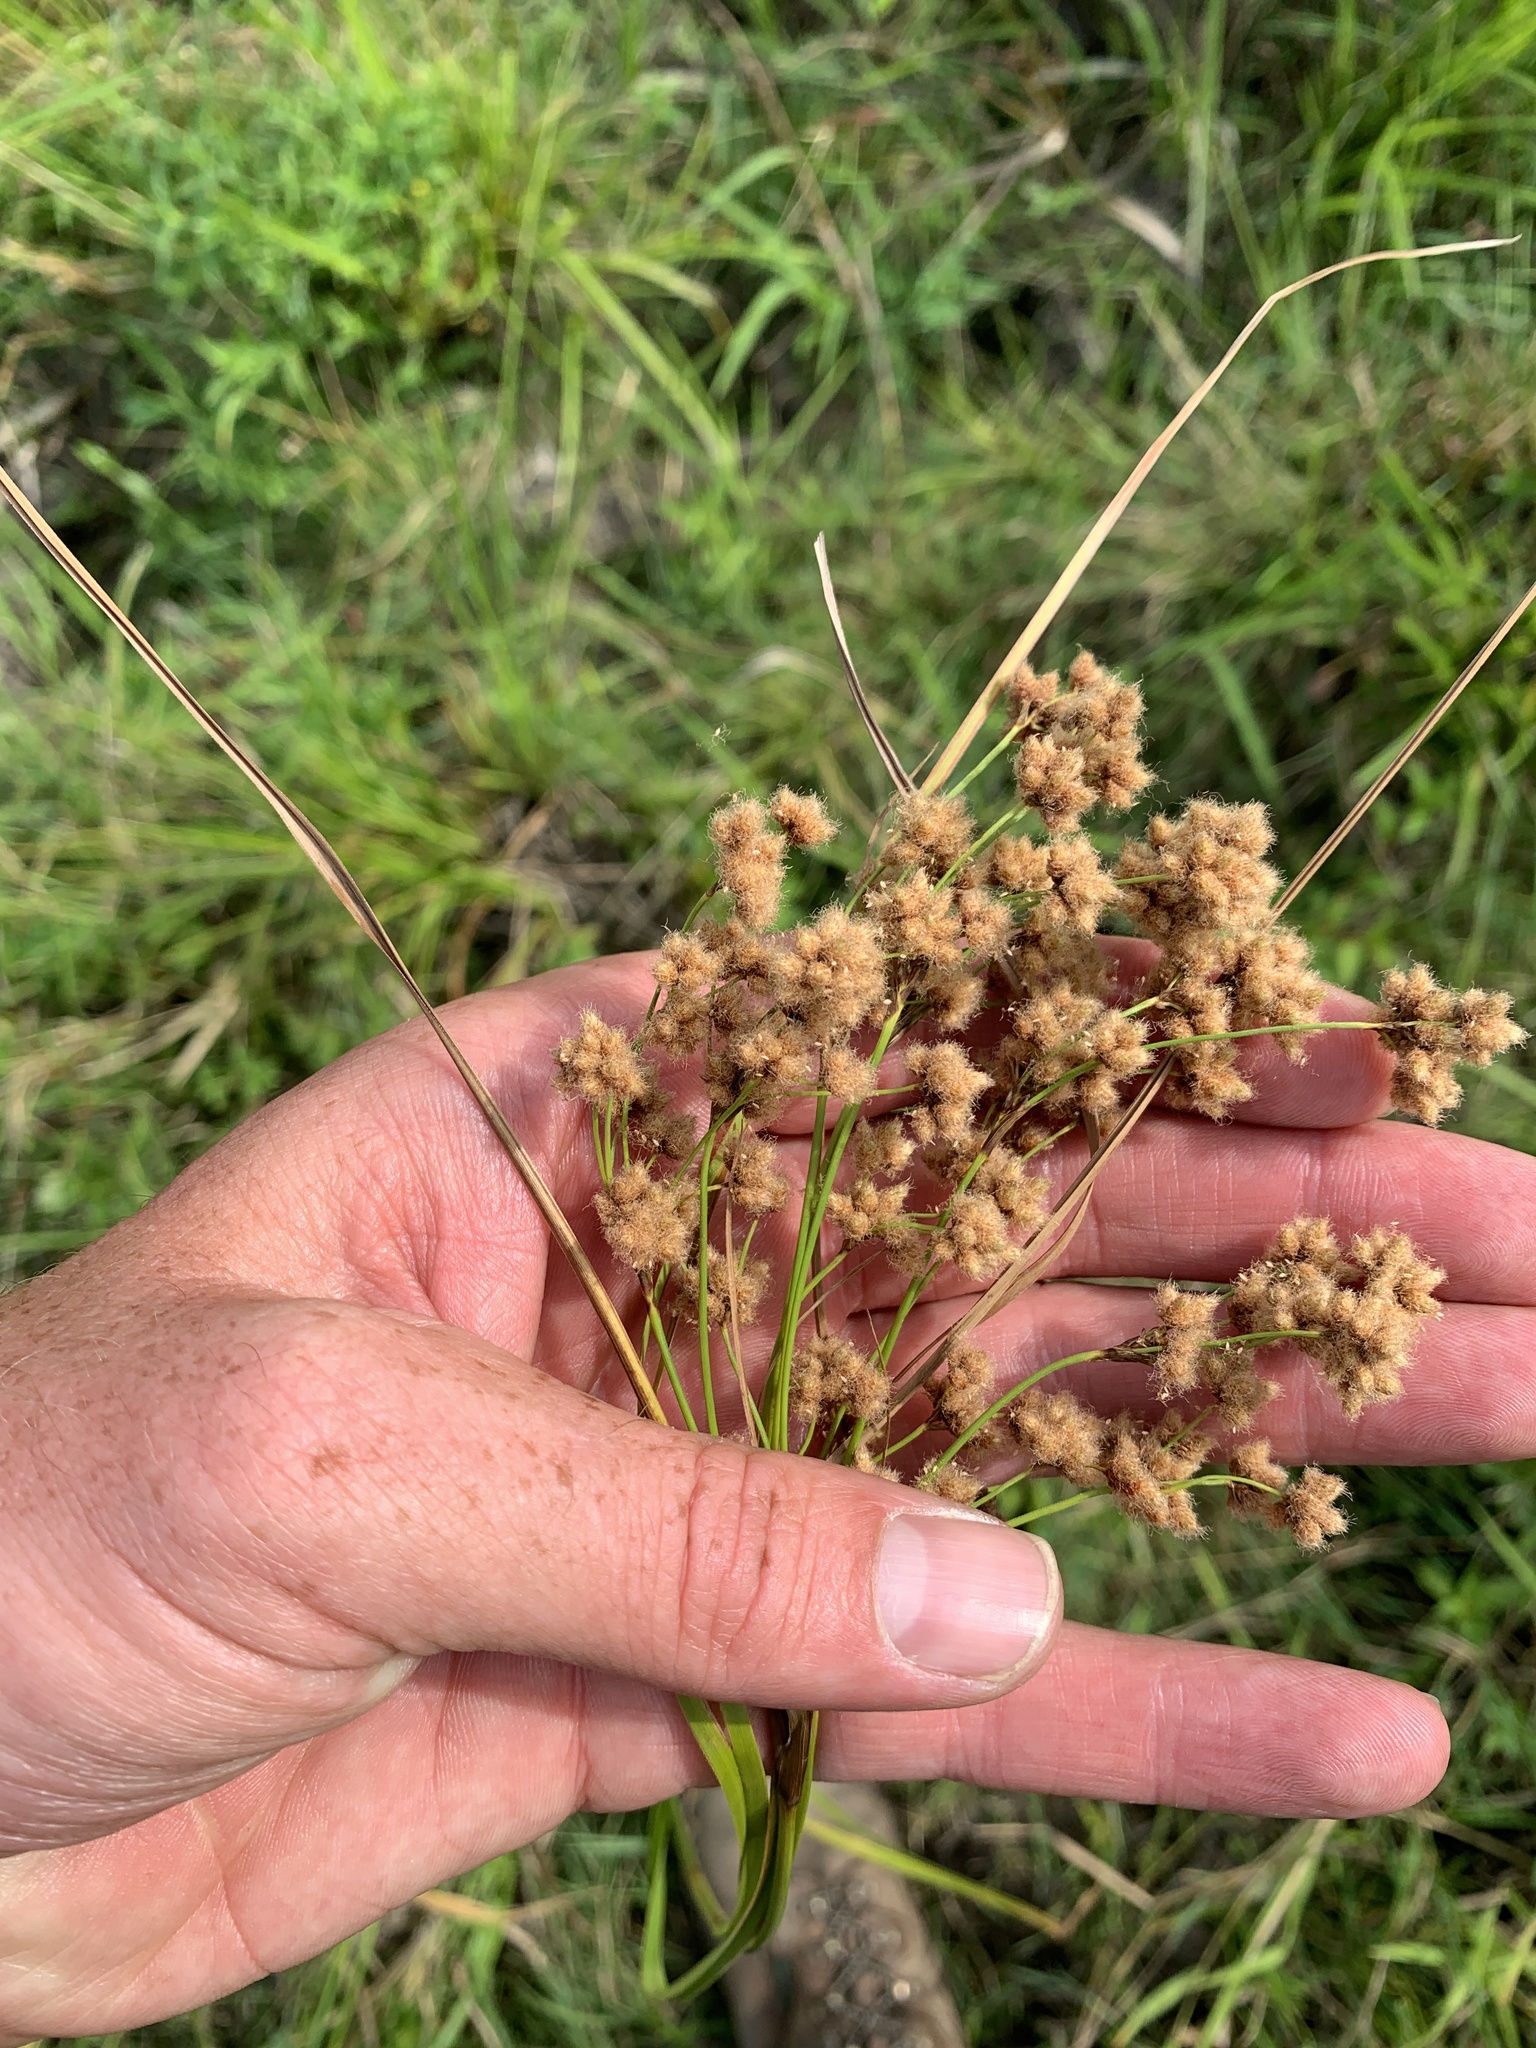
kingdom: Plantae
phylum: Tracheophyta
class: Liliopsida
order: Poales
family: Cyperaceae
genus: Scirpus
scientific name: Scirpus cyperinus
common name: Black-sheathed bulrush
